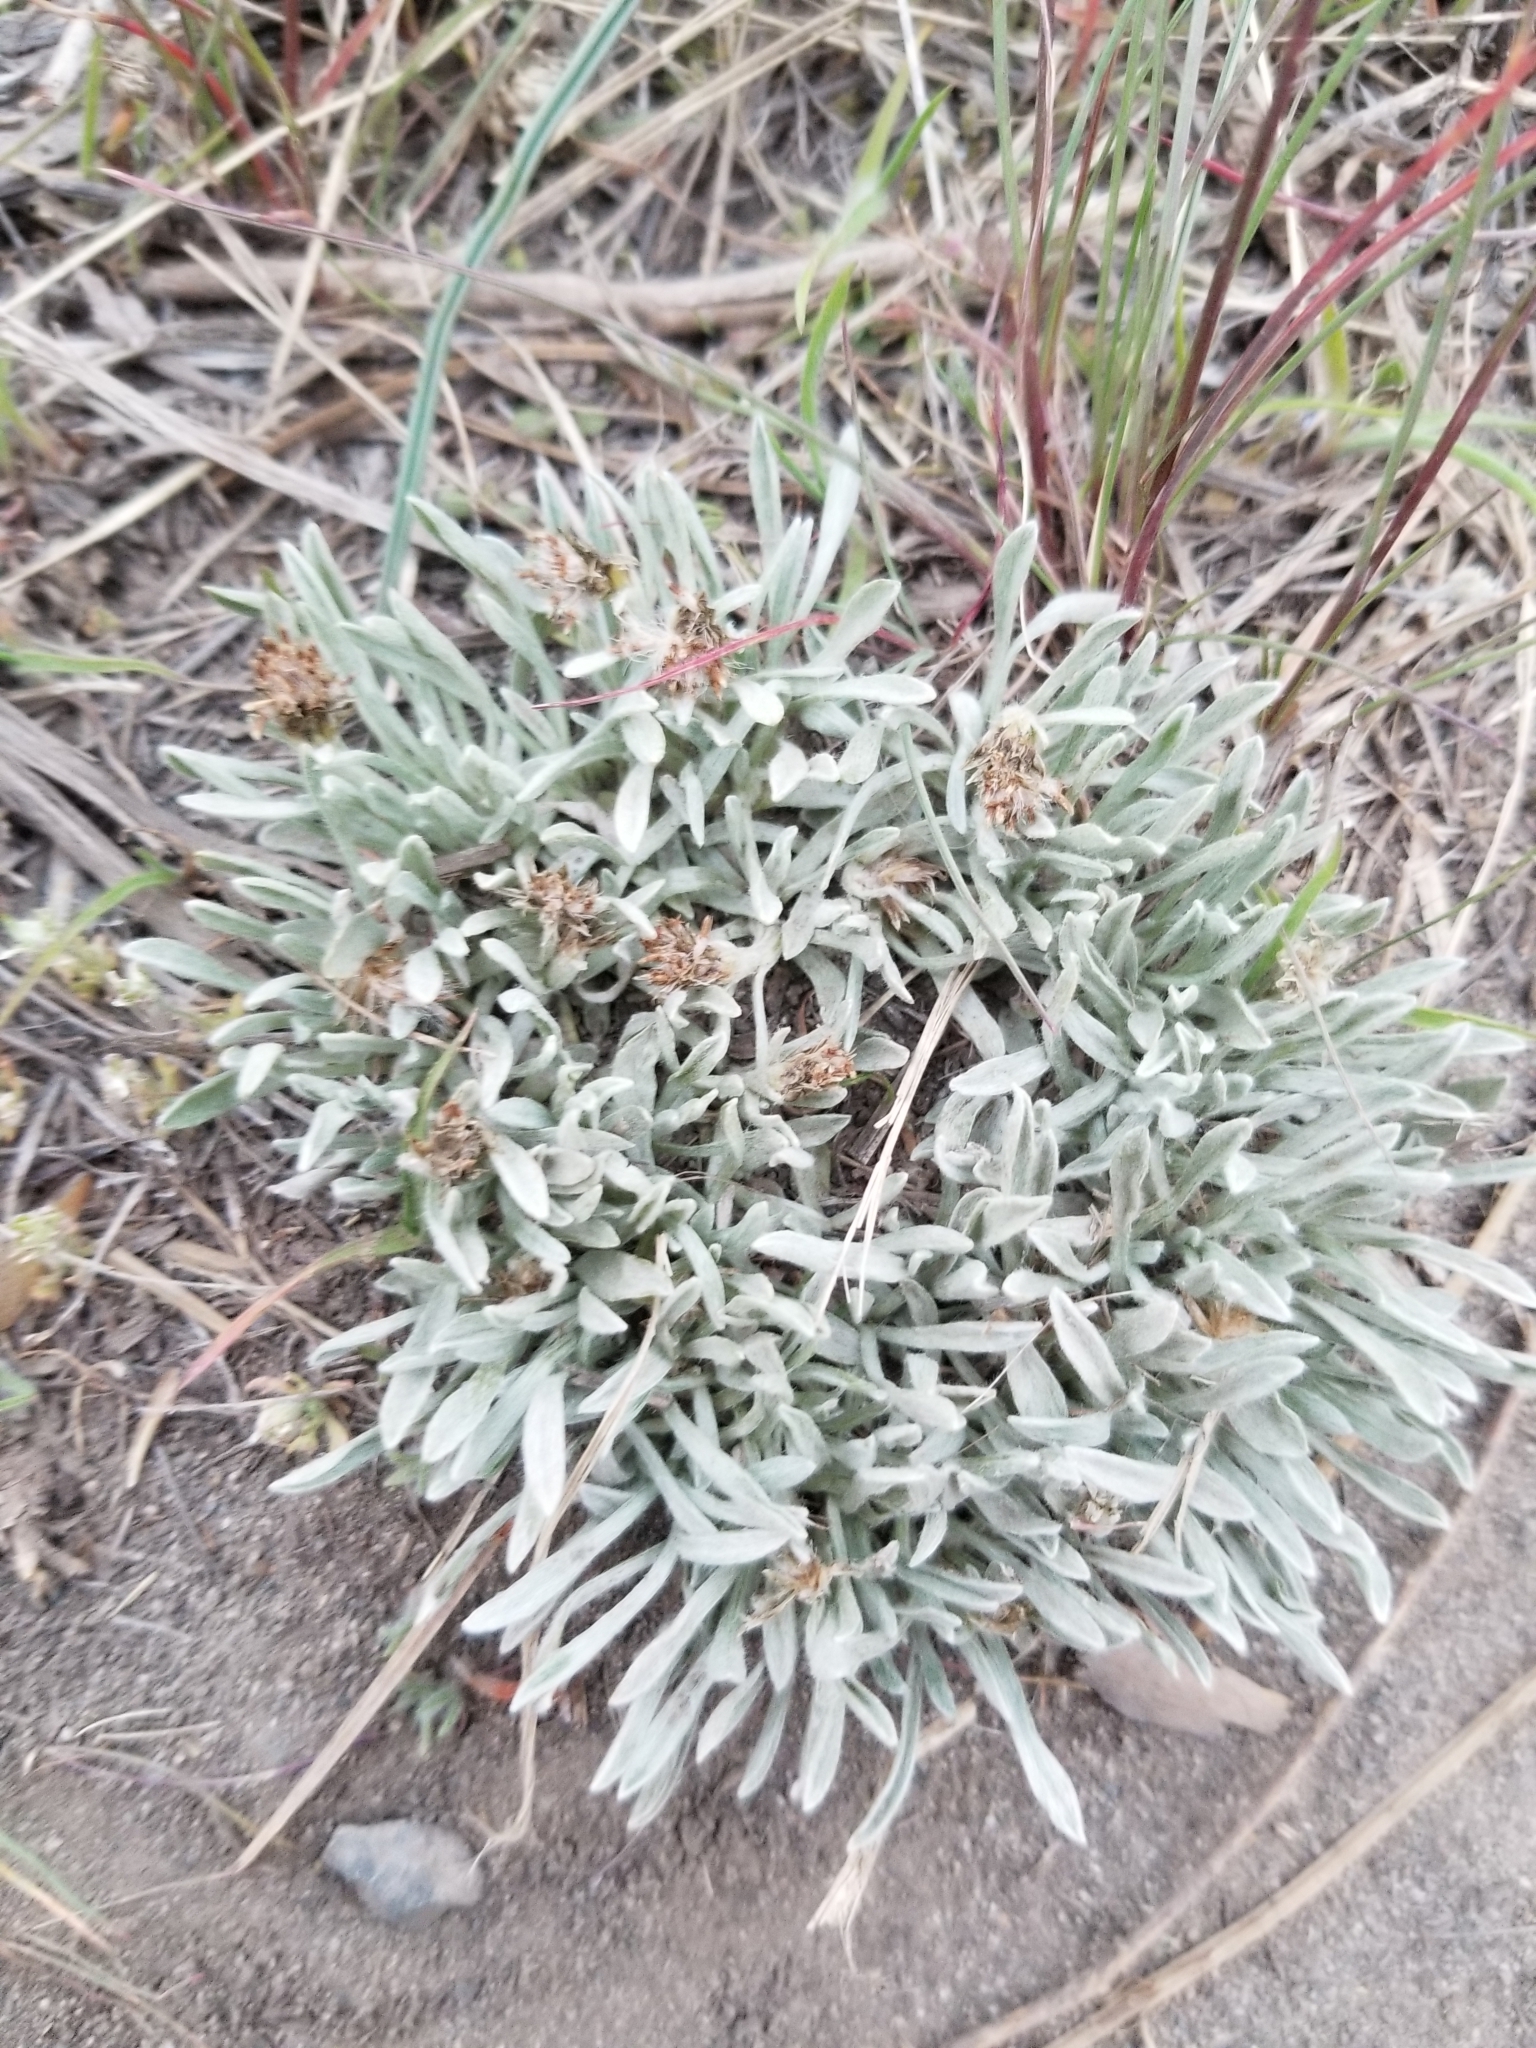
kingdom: Plantae
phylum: Tracheophyta
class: Magnoliopsida
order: Asterales
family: Asteraceae
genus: Antennaria
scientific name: Antennaria dimorpha
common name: Cushion pussytoes
